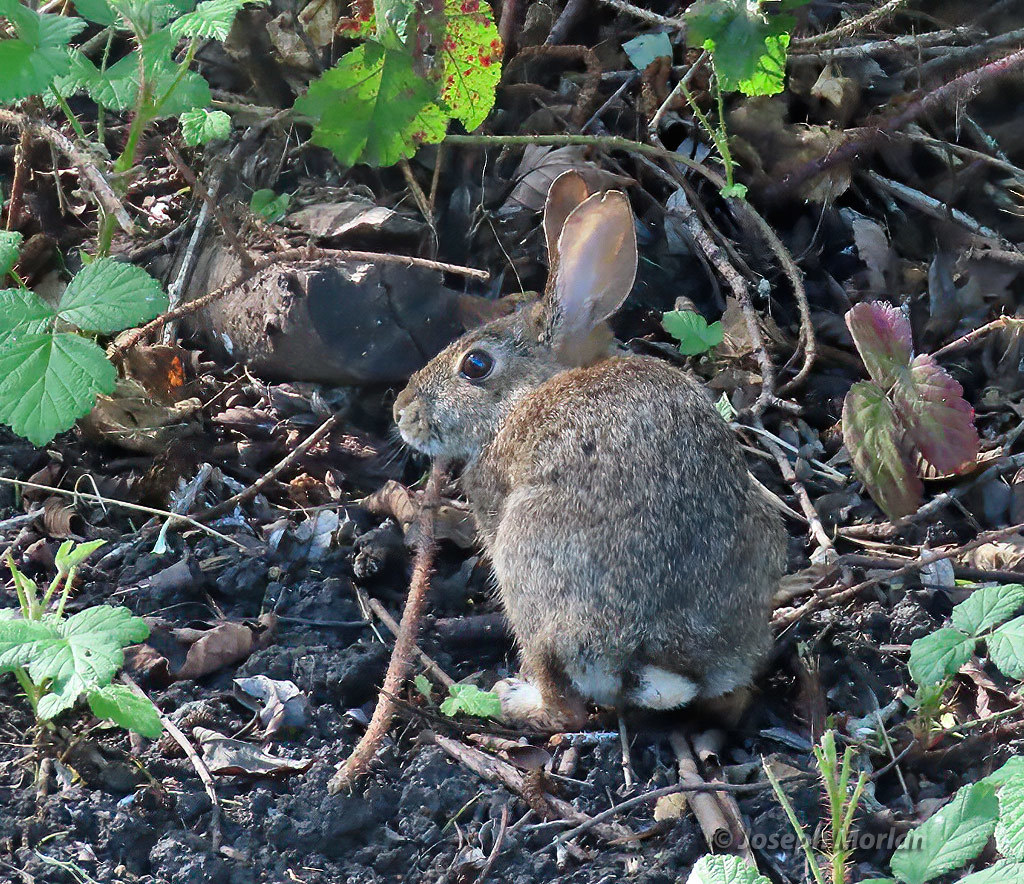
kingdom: Animalia
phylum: Chordata
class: Mammalia
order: Lagomorpha
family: Leporidae
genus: Sylvilagus
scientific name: Sylvilagus bachmani
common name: Brush rabbit
